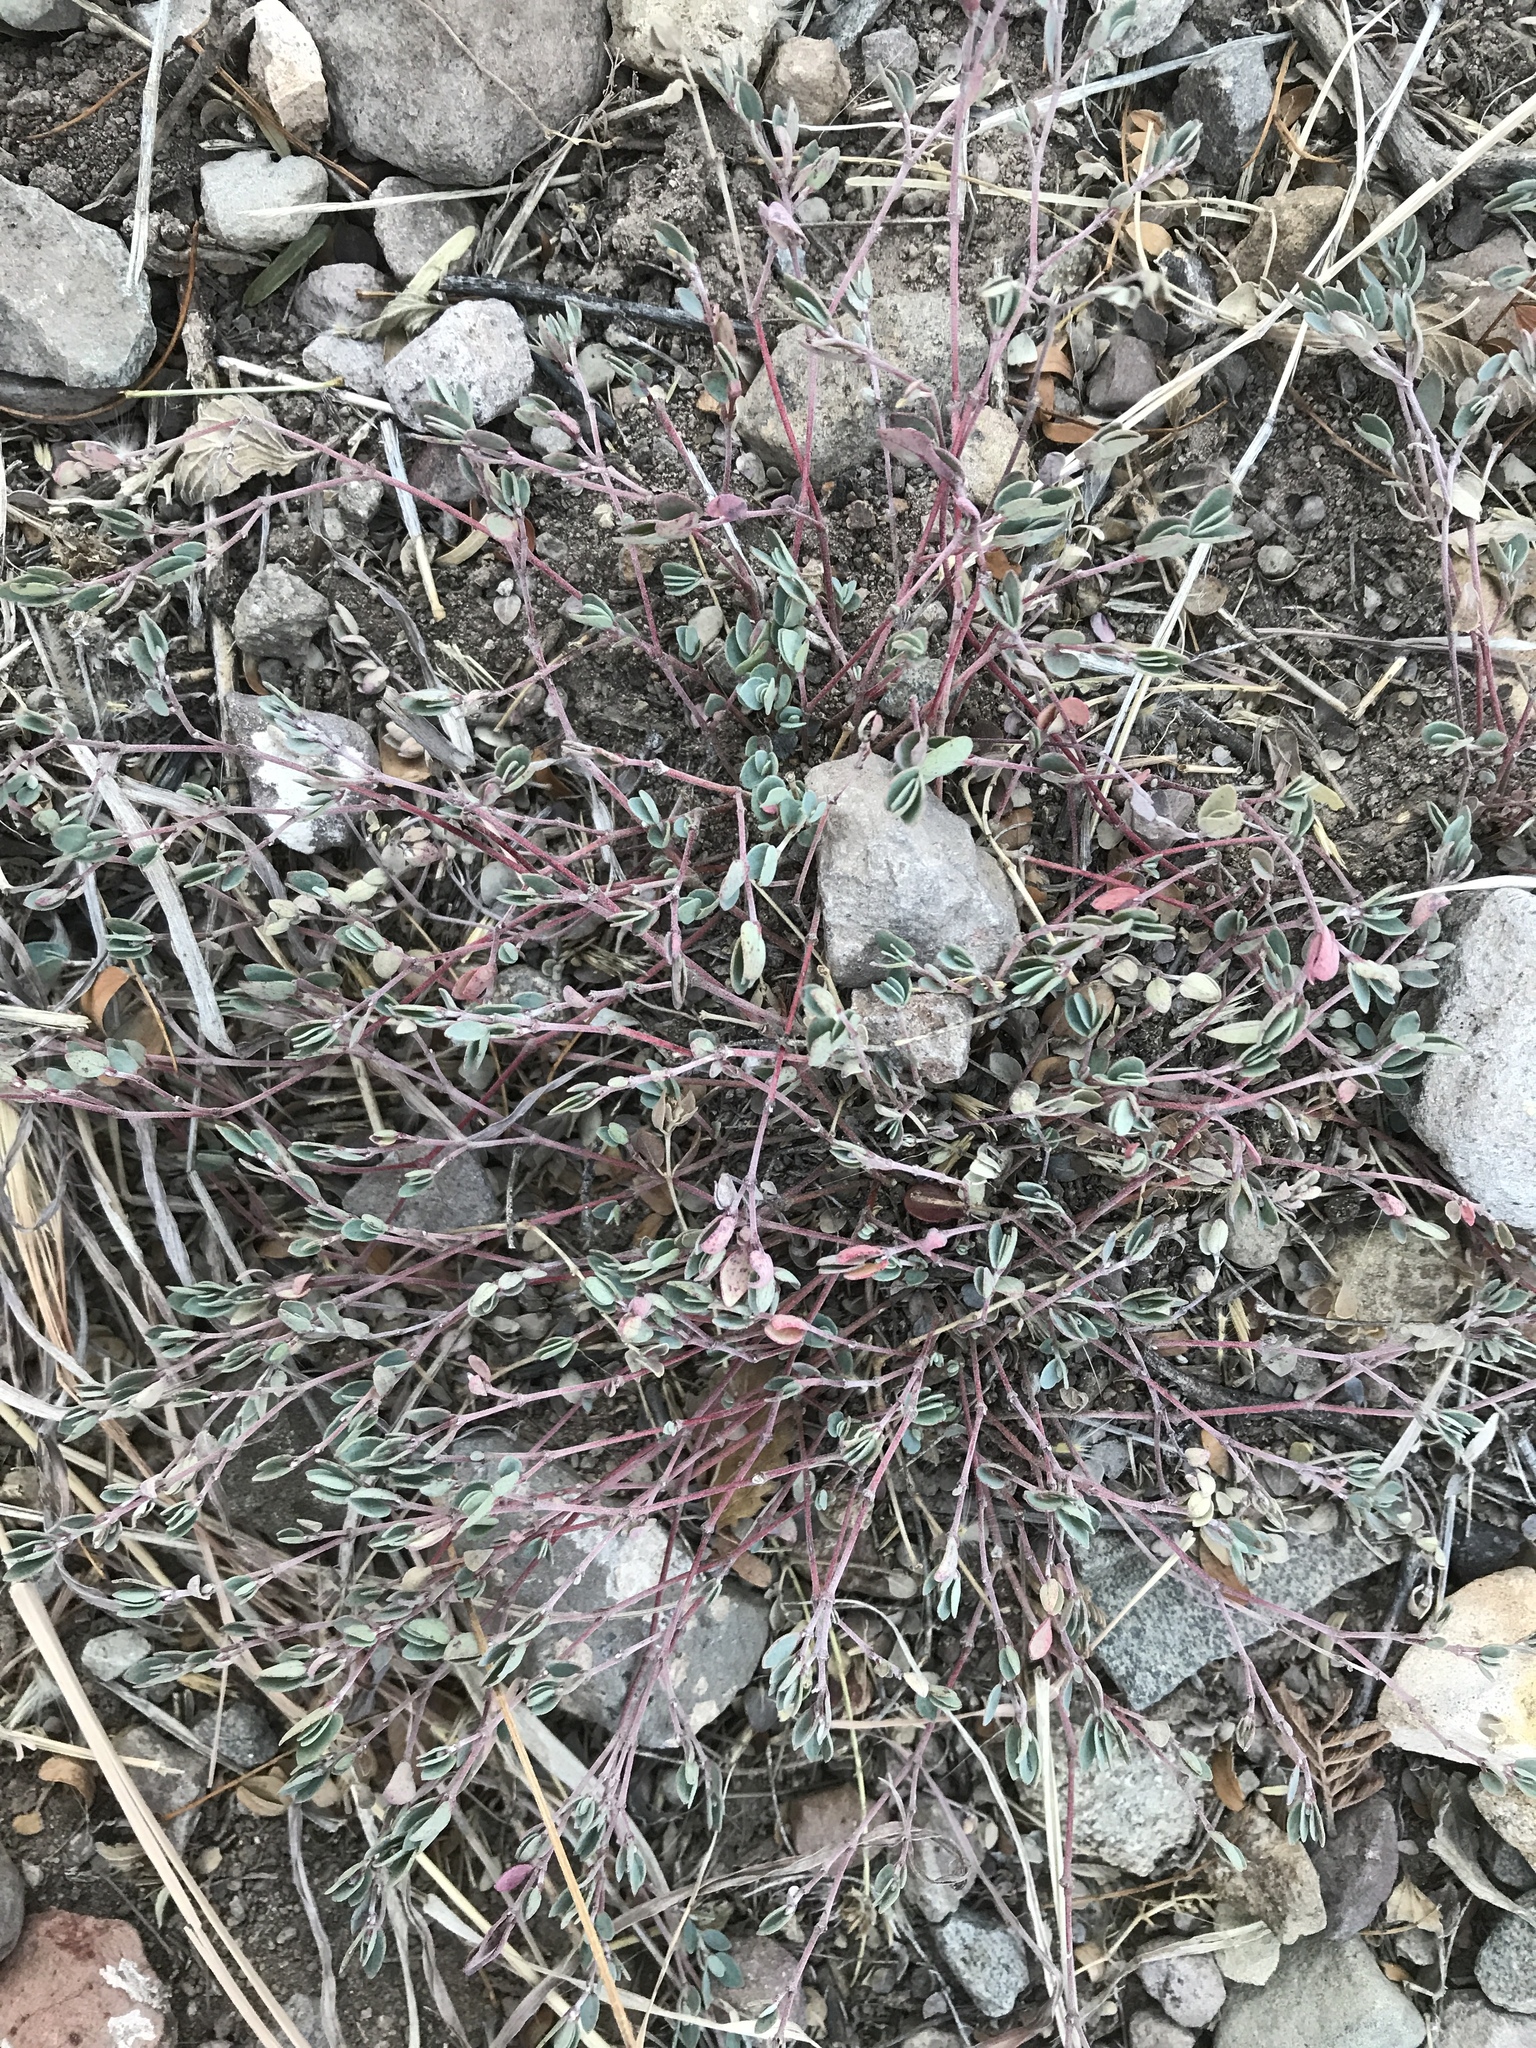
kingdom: Plantae
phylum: Tracheophyta
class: Magnoliopsida
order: Malpighiales
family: Euphorbiaceae
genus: Euphorbia
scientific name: Euphorbia cinerascens
